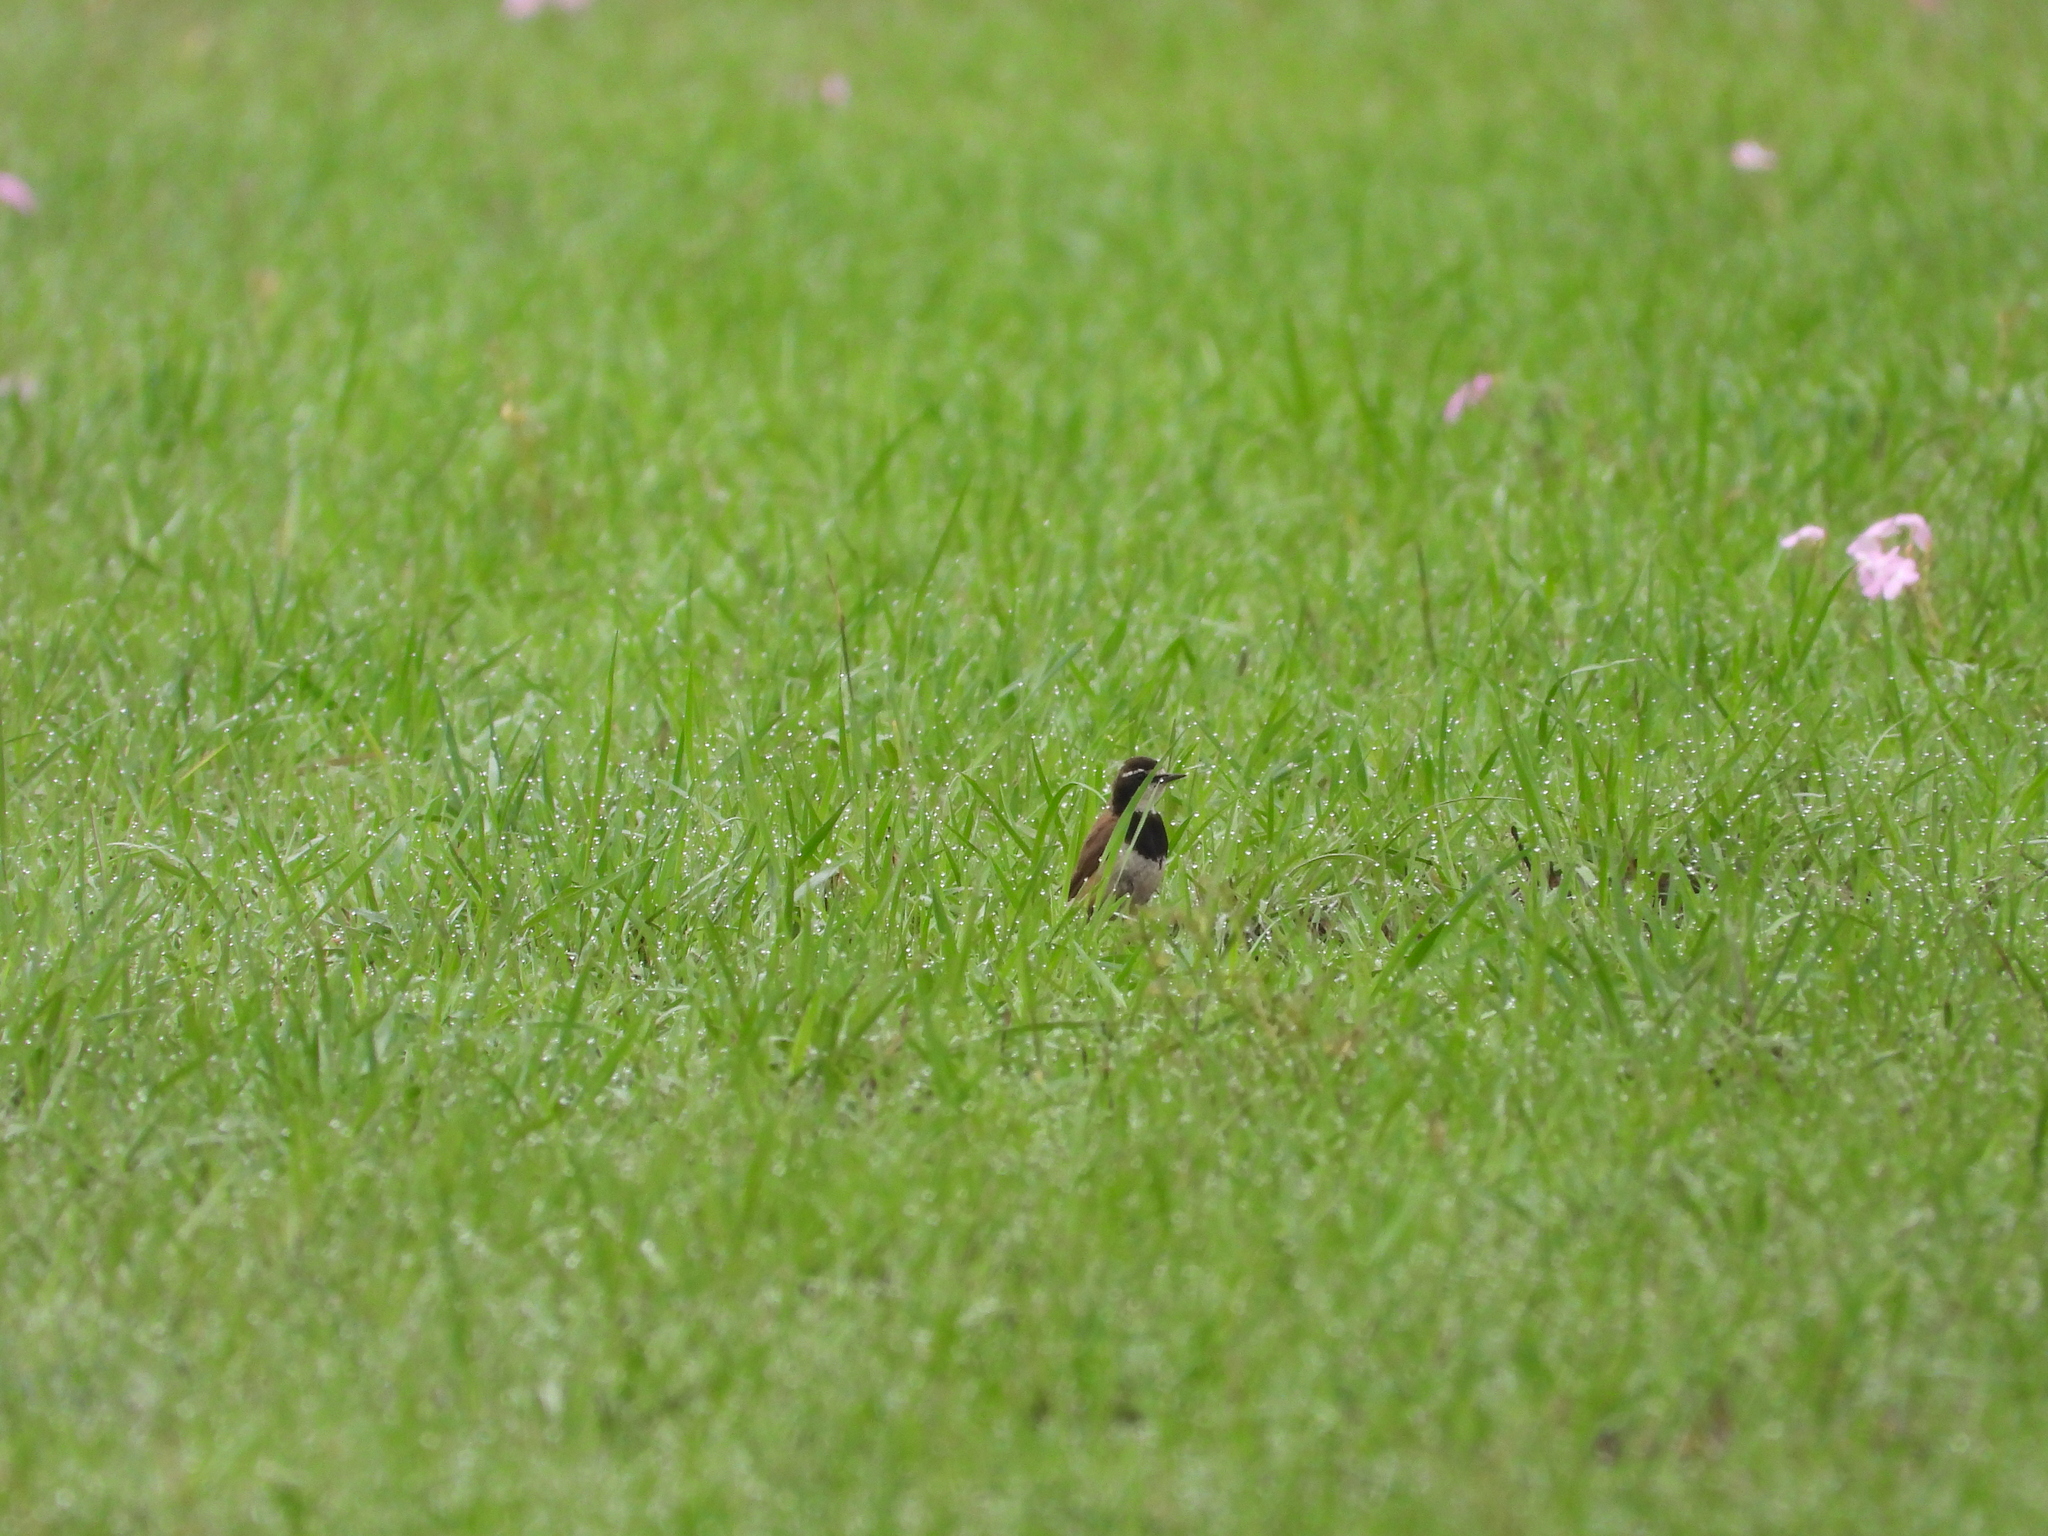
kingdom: Animalia
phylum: Chordata
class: Aves
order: Passeriformes
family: Muscicapidae
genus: Oenanthe
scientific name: Oenanthe pileata
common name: Capped wheatear
